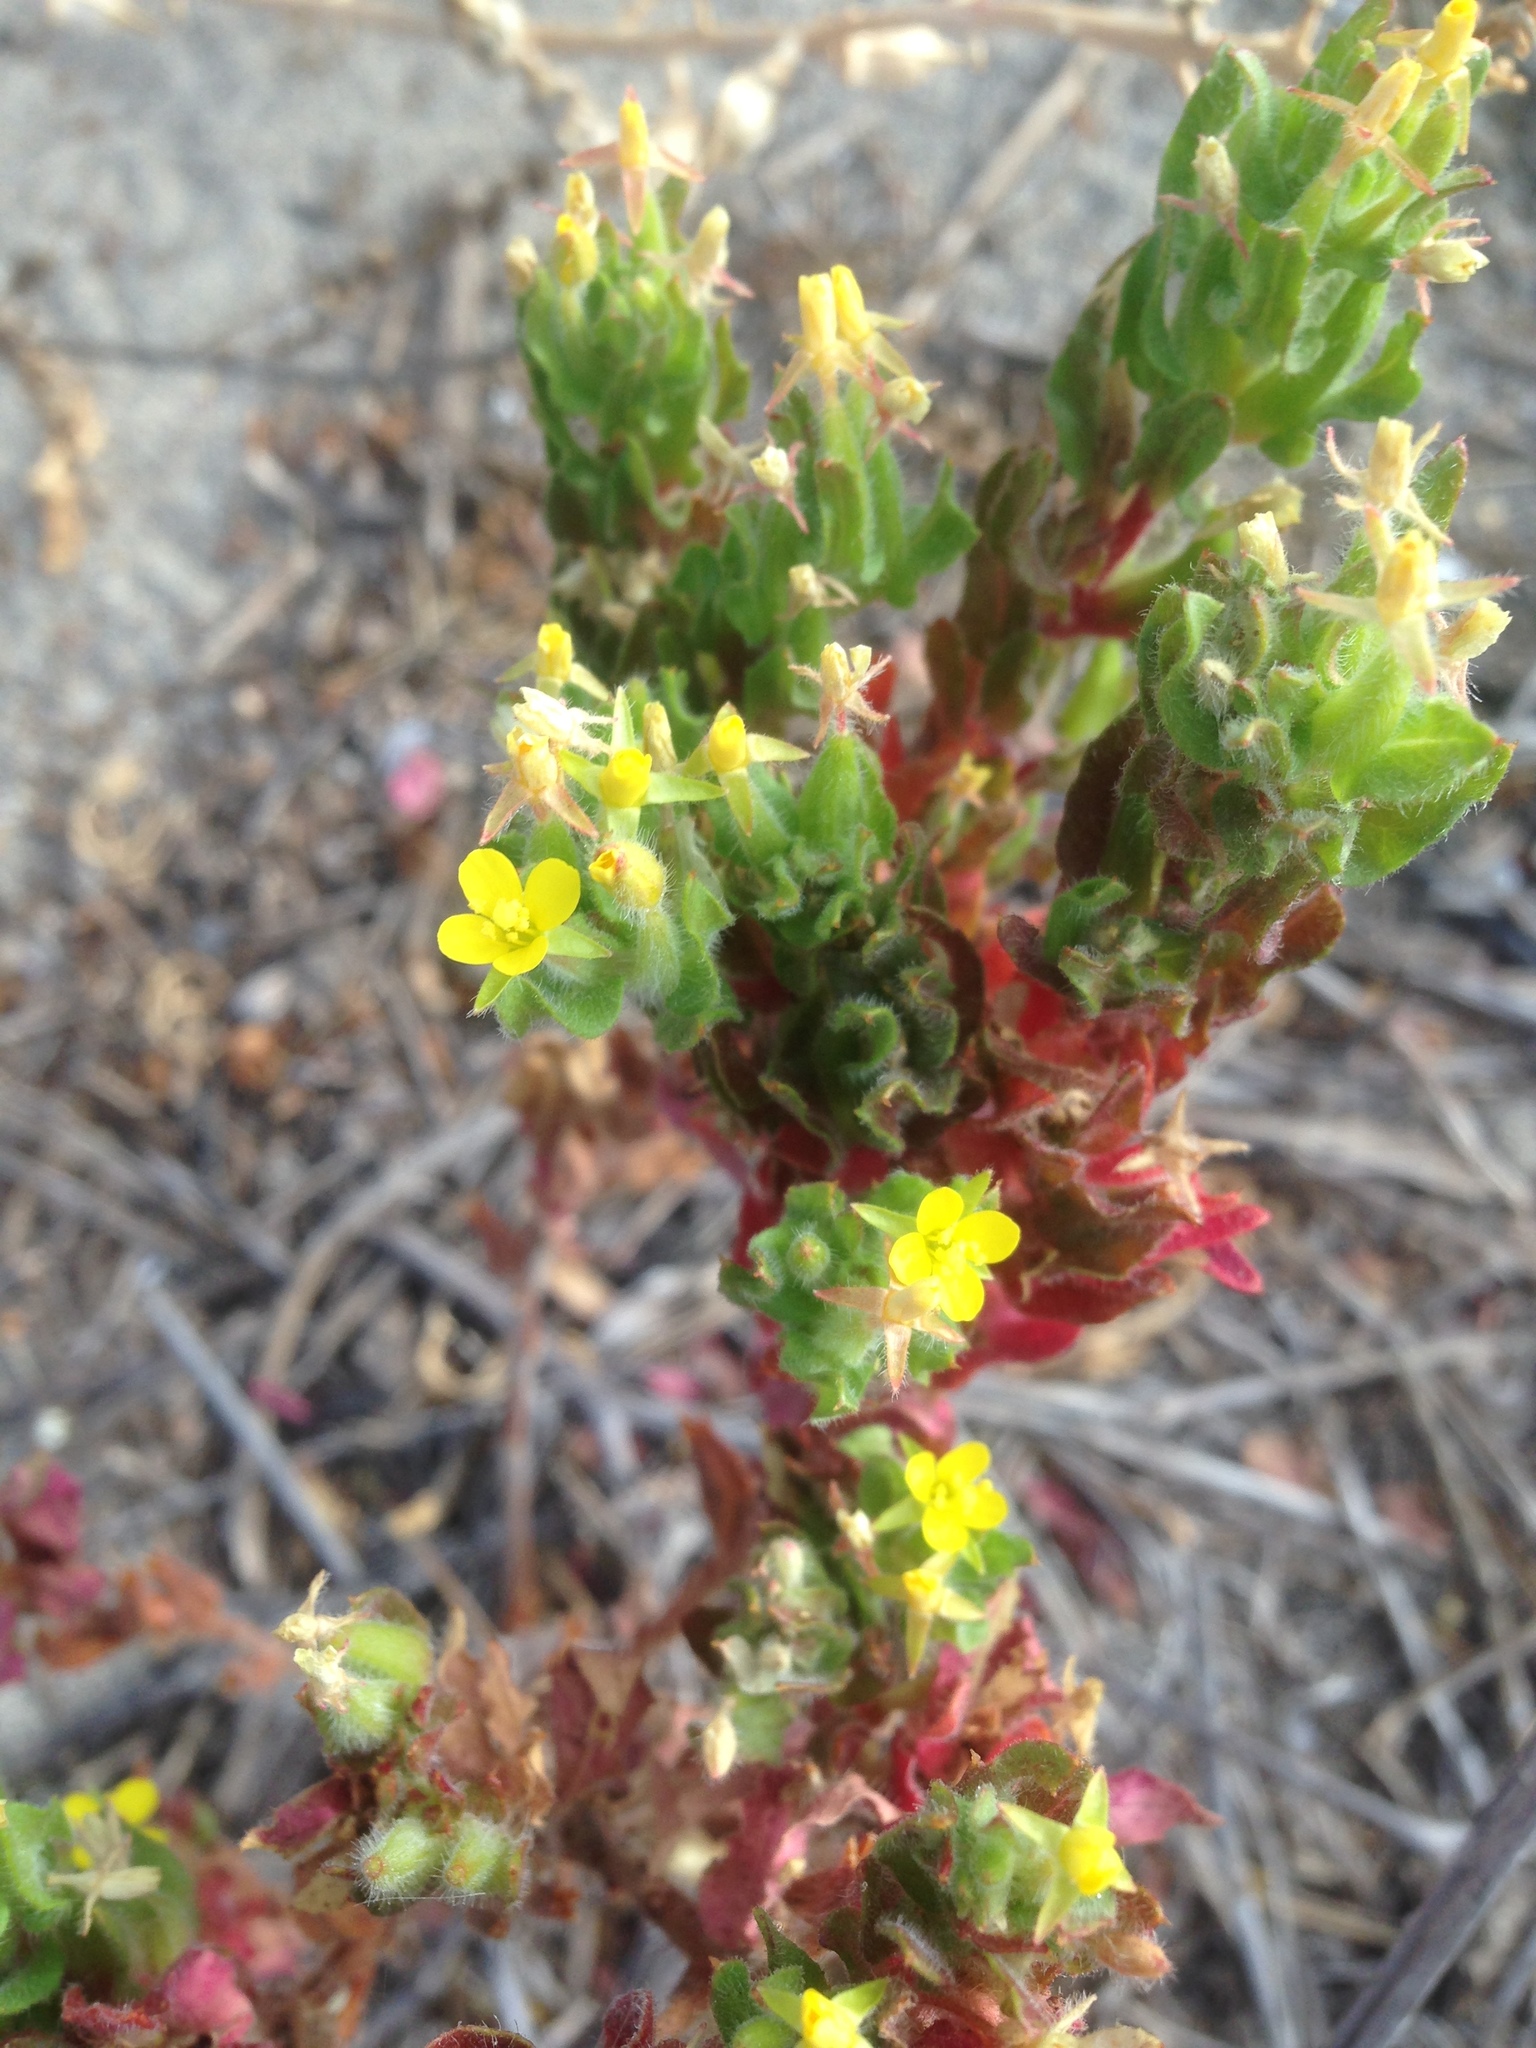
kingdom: Plantae
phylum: Tracheophyta
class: Magnoliopsida
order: Myrtales
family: Onagraceae
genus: Camissoniopsis
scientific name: Camissoniopsis guadalupensis
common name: Guadalupe suncup
